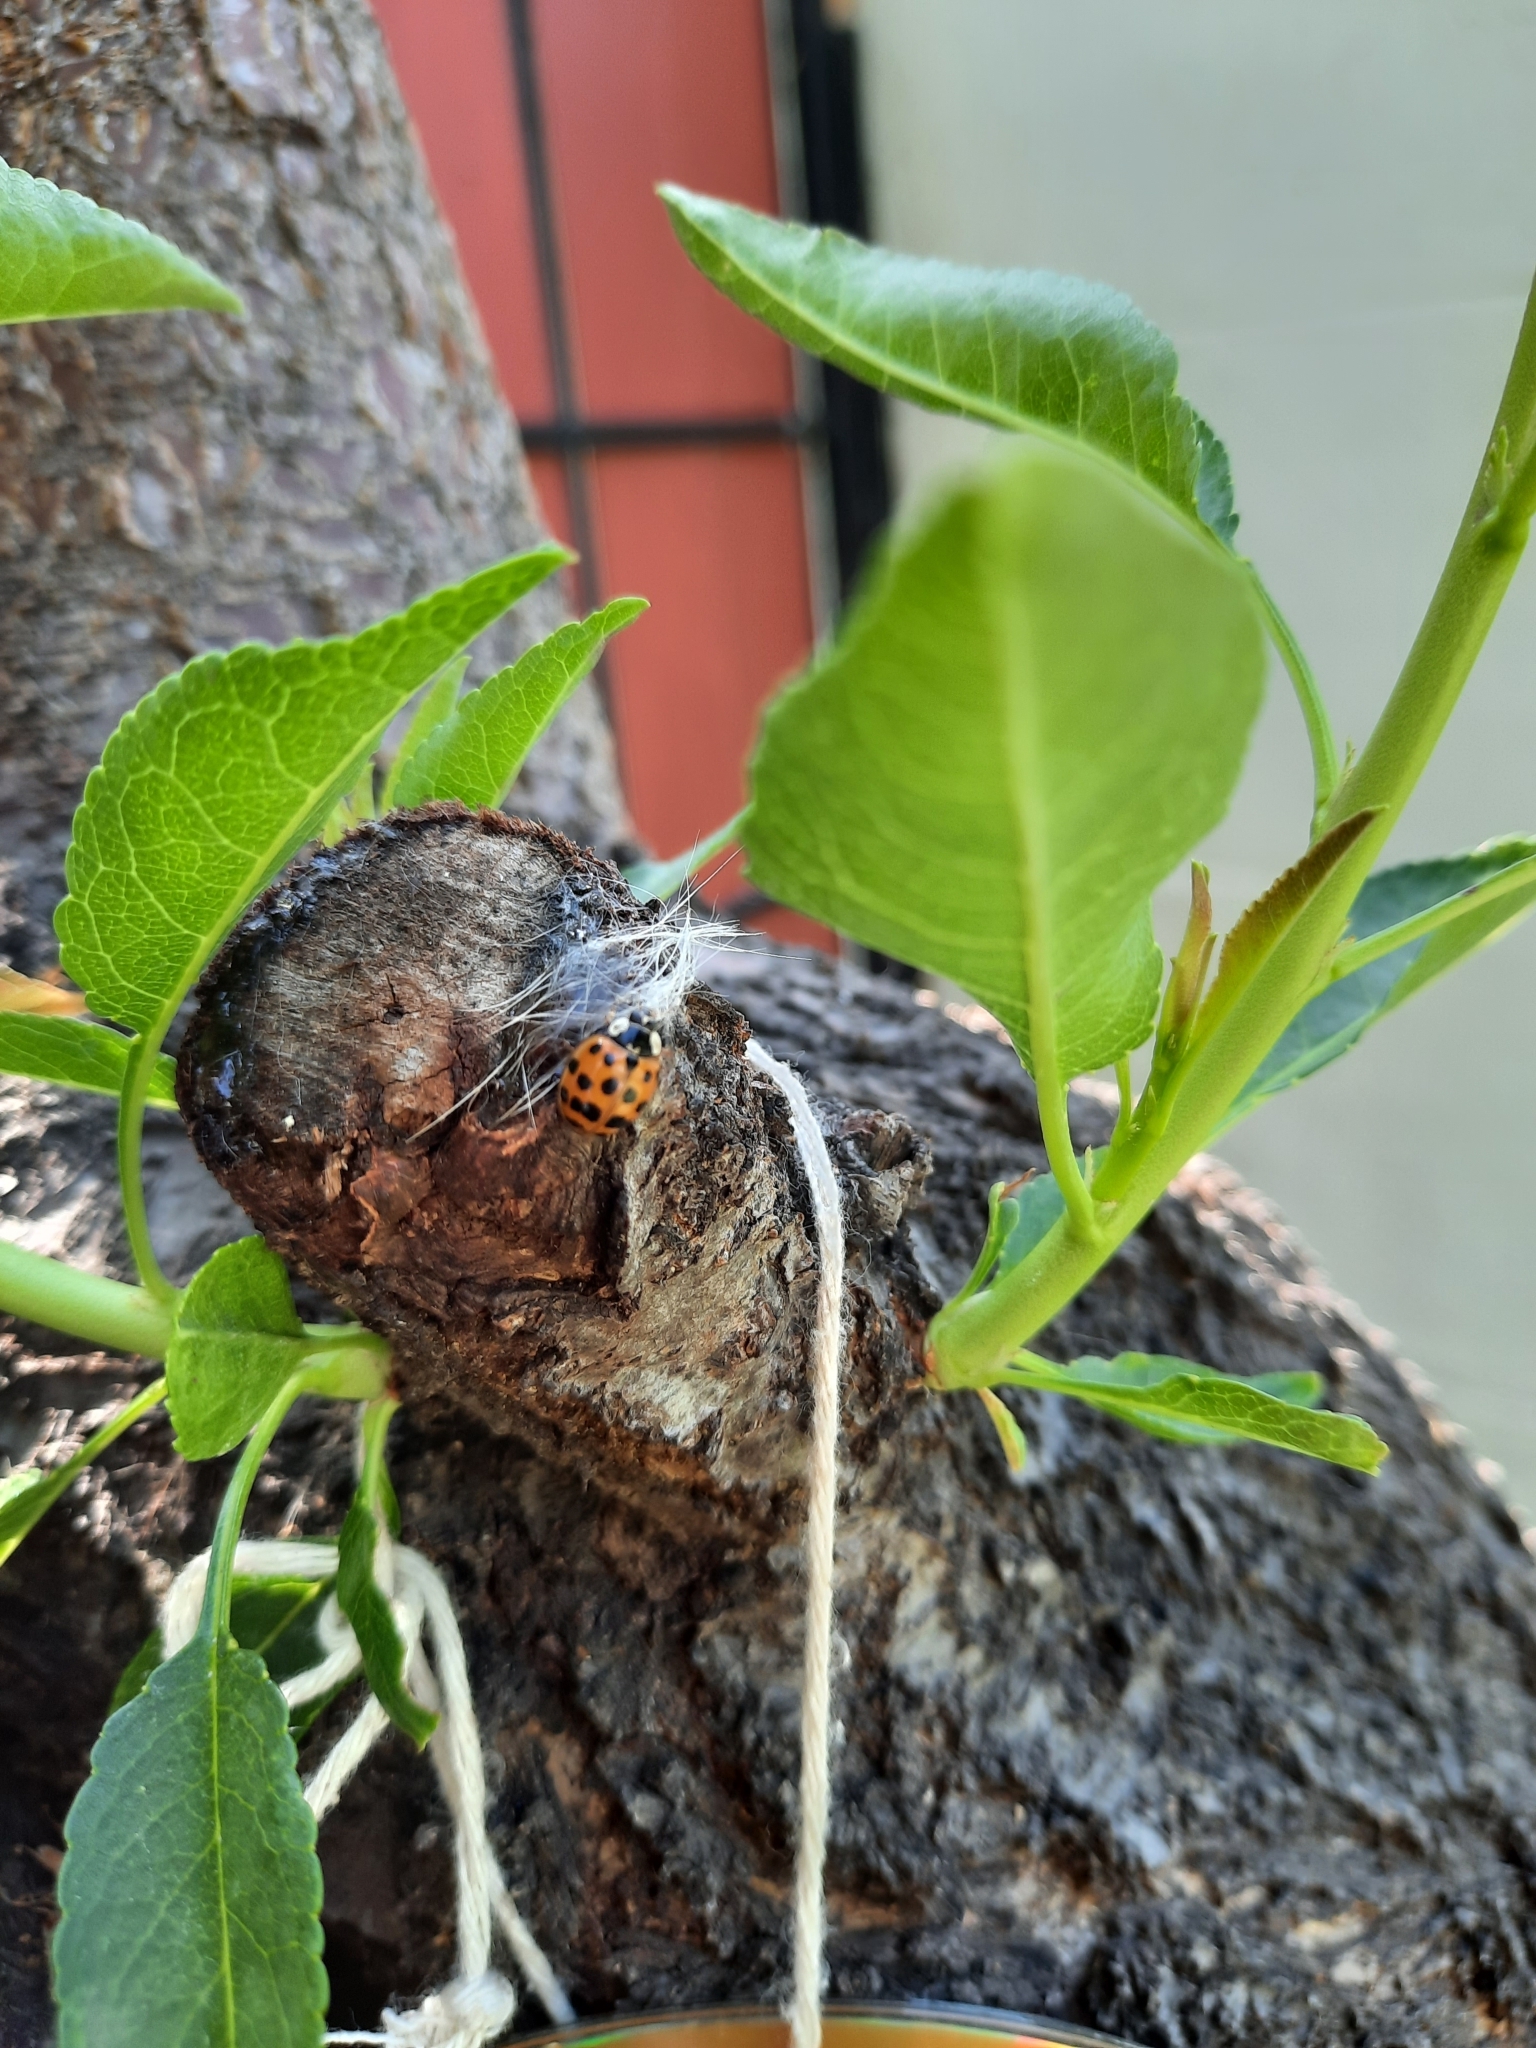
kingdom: Animalia
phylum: Arthropoda
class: Insecta
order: Coleoptera
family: Coccinellidae
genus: Harmonia
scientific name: Harmonia axyridis
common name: Harlequin ladybird
